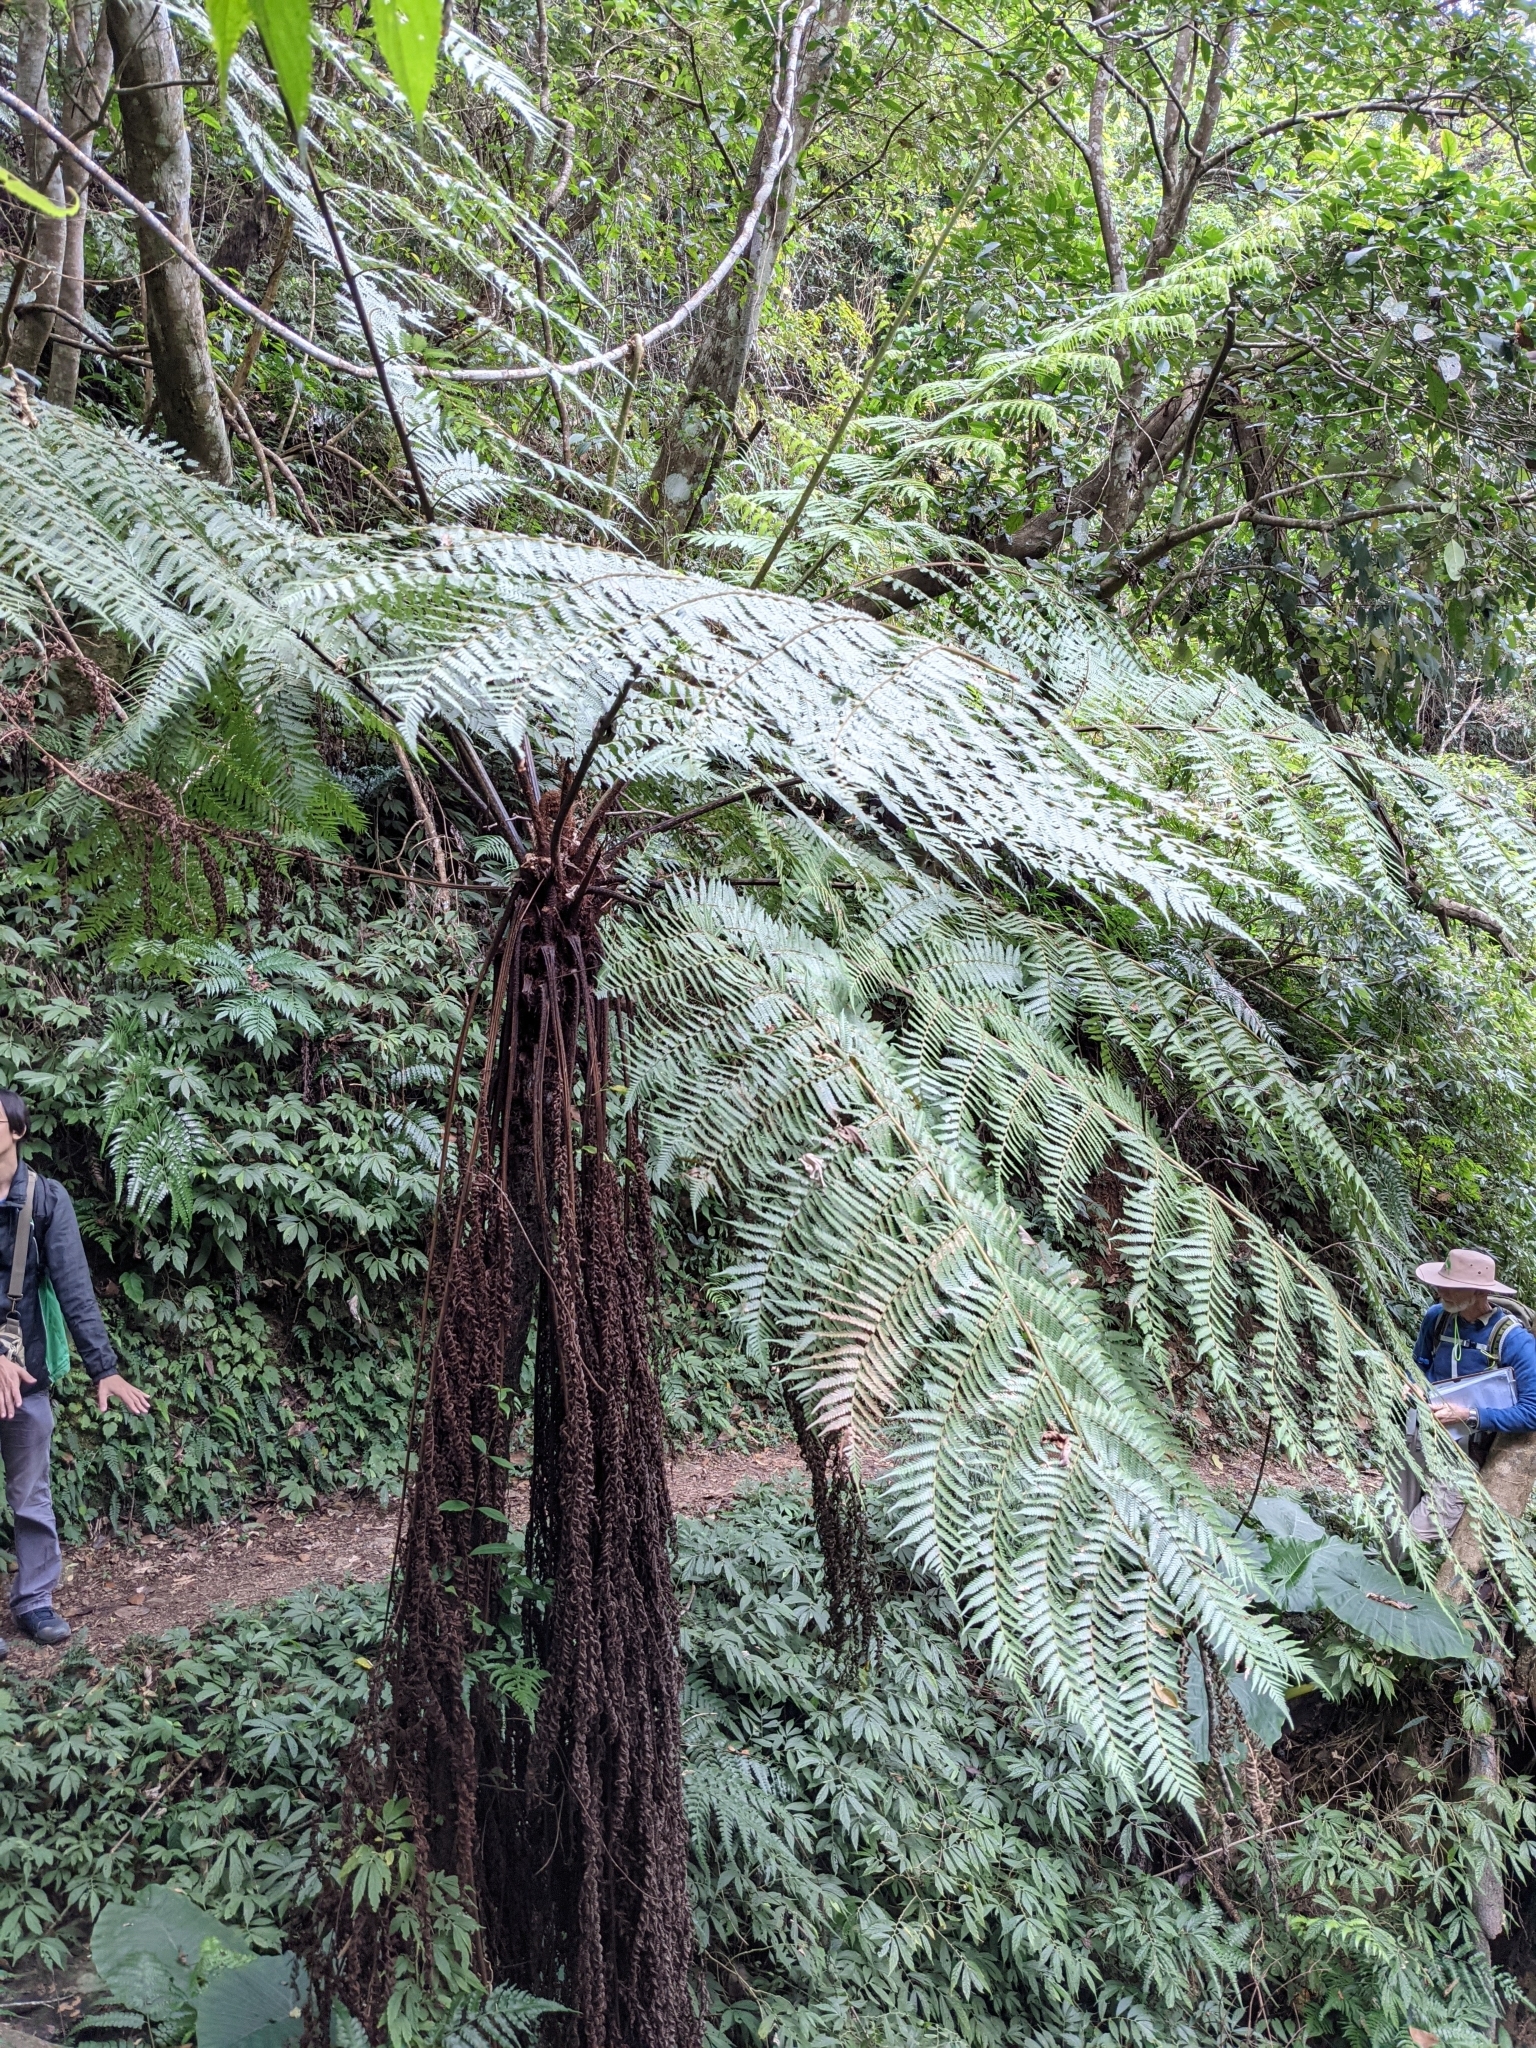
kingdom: Plantae
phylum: Tracheophyta
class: Polypodiopsida
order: Cyatheales
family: Cyatheaceae
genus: Alsophila
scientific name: Alsophila spinulosa
